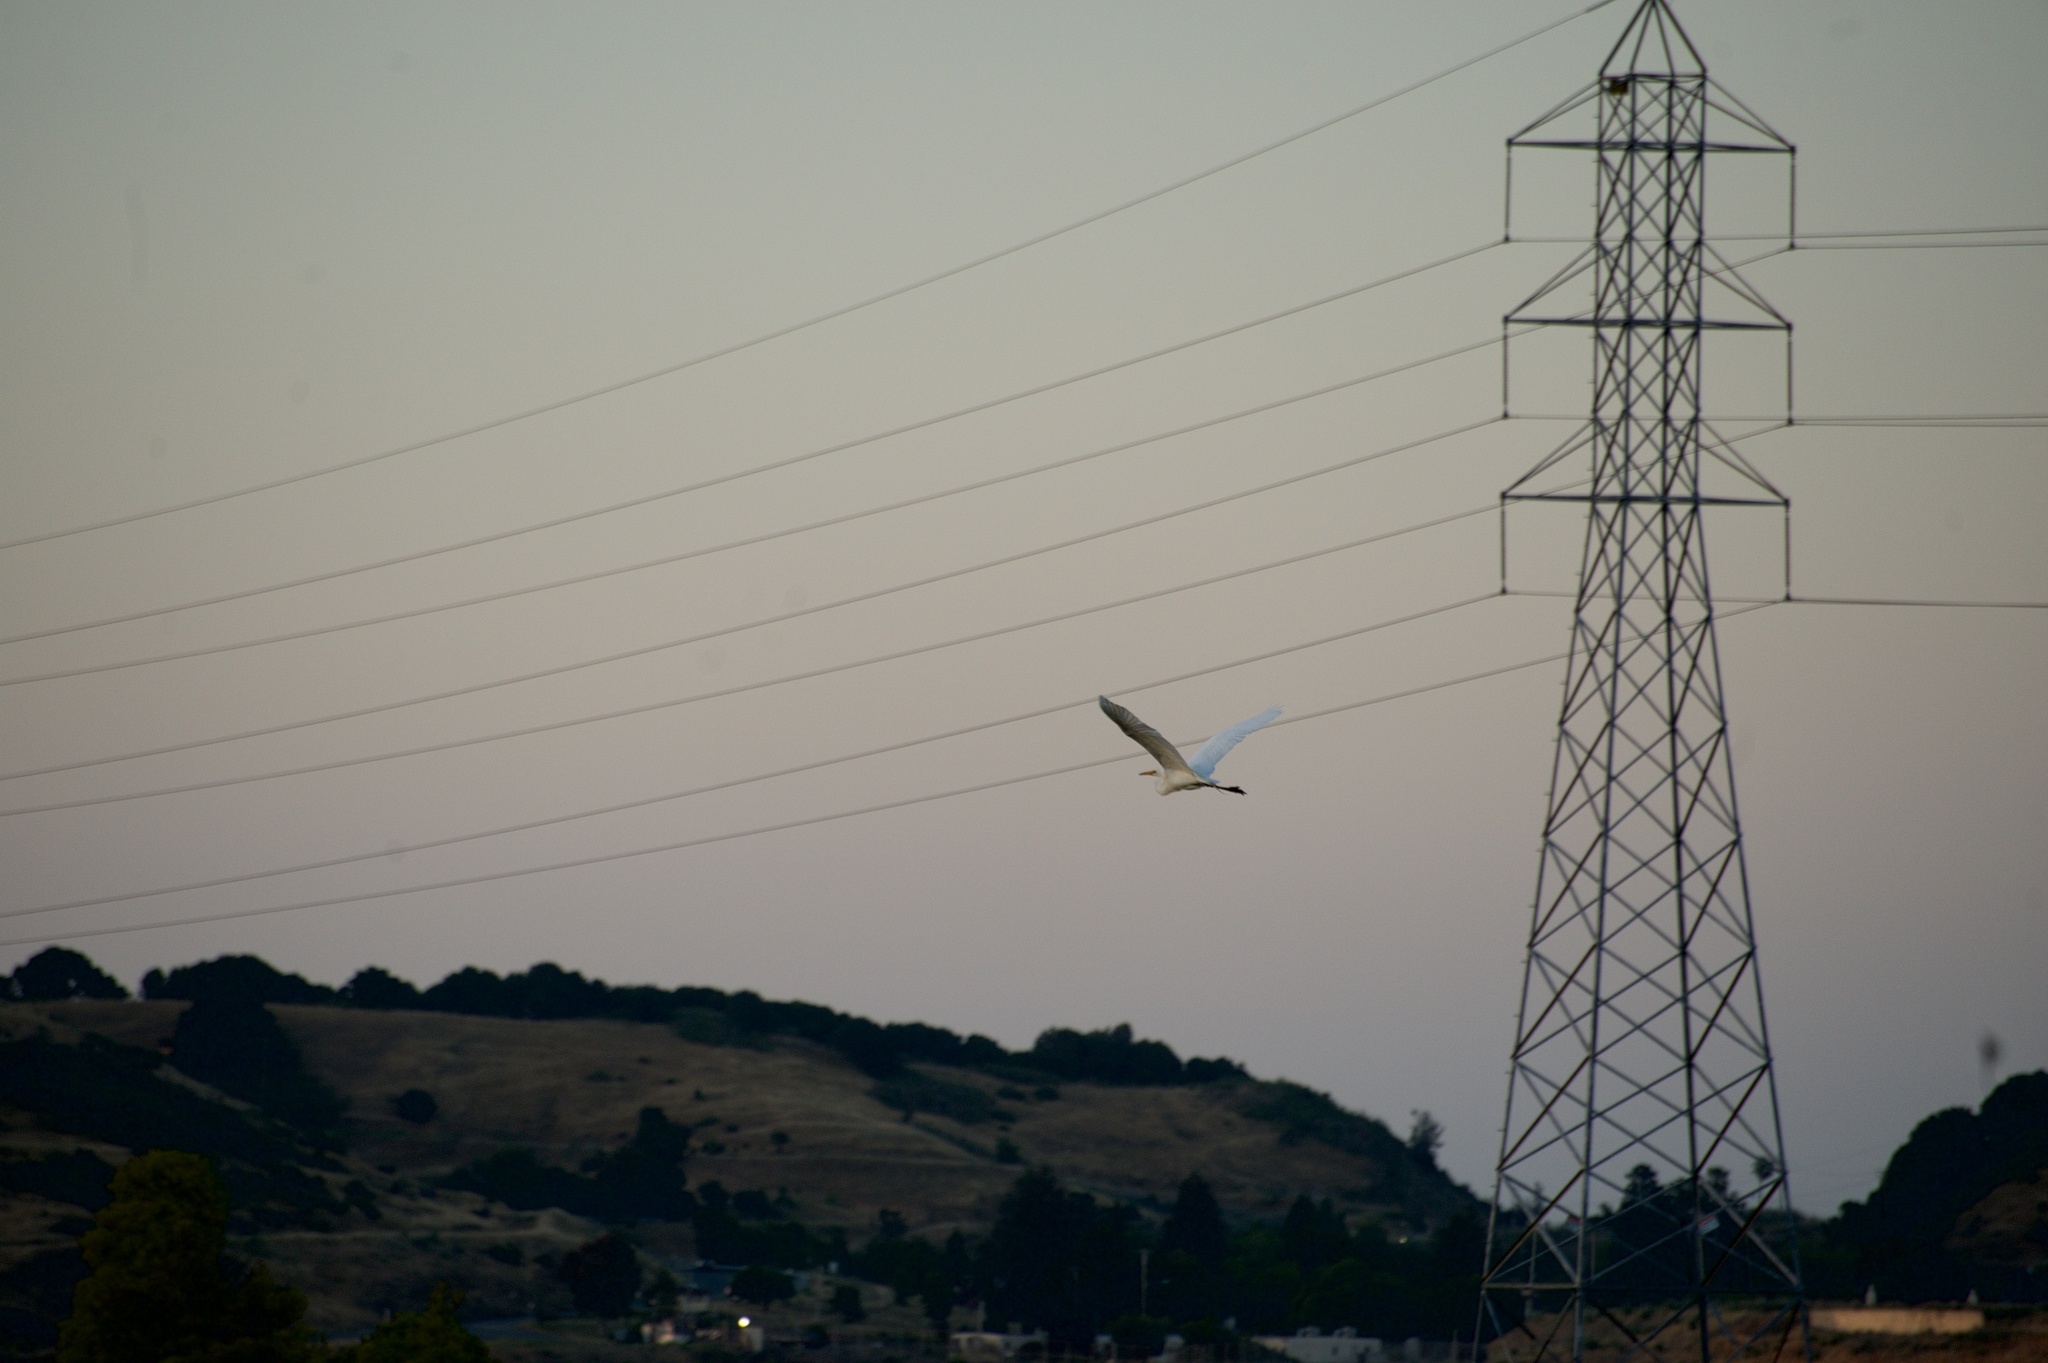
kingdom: Animalia
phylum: Chordata
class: Aves
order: Pelecaniformes
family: Ardeidae
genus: Ardea
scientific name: Ardea alba
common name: Great egret
